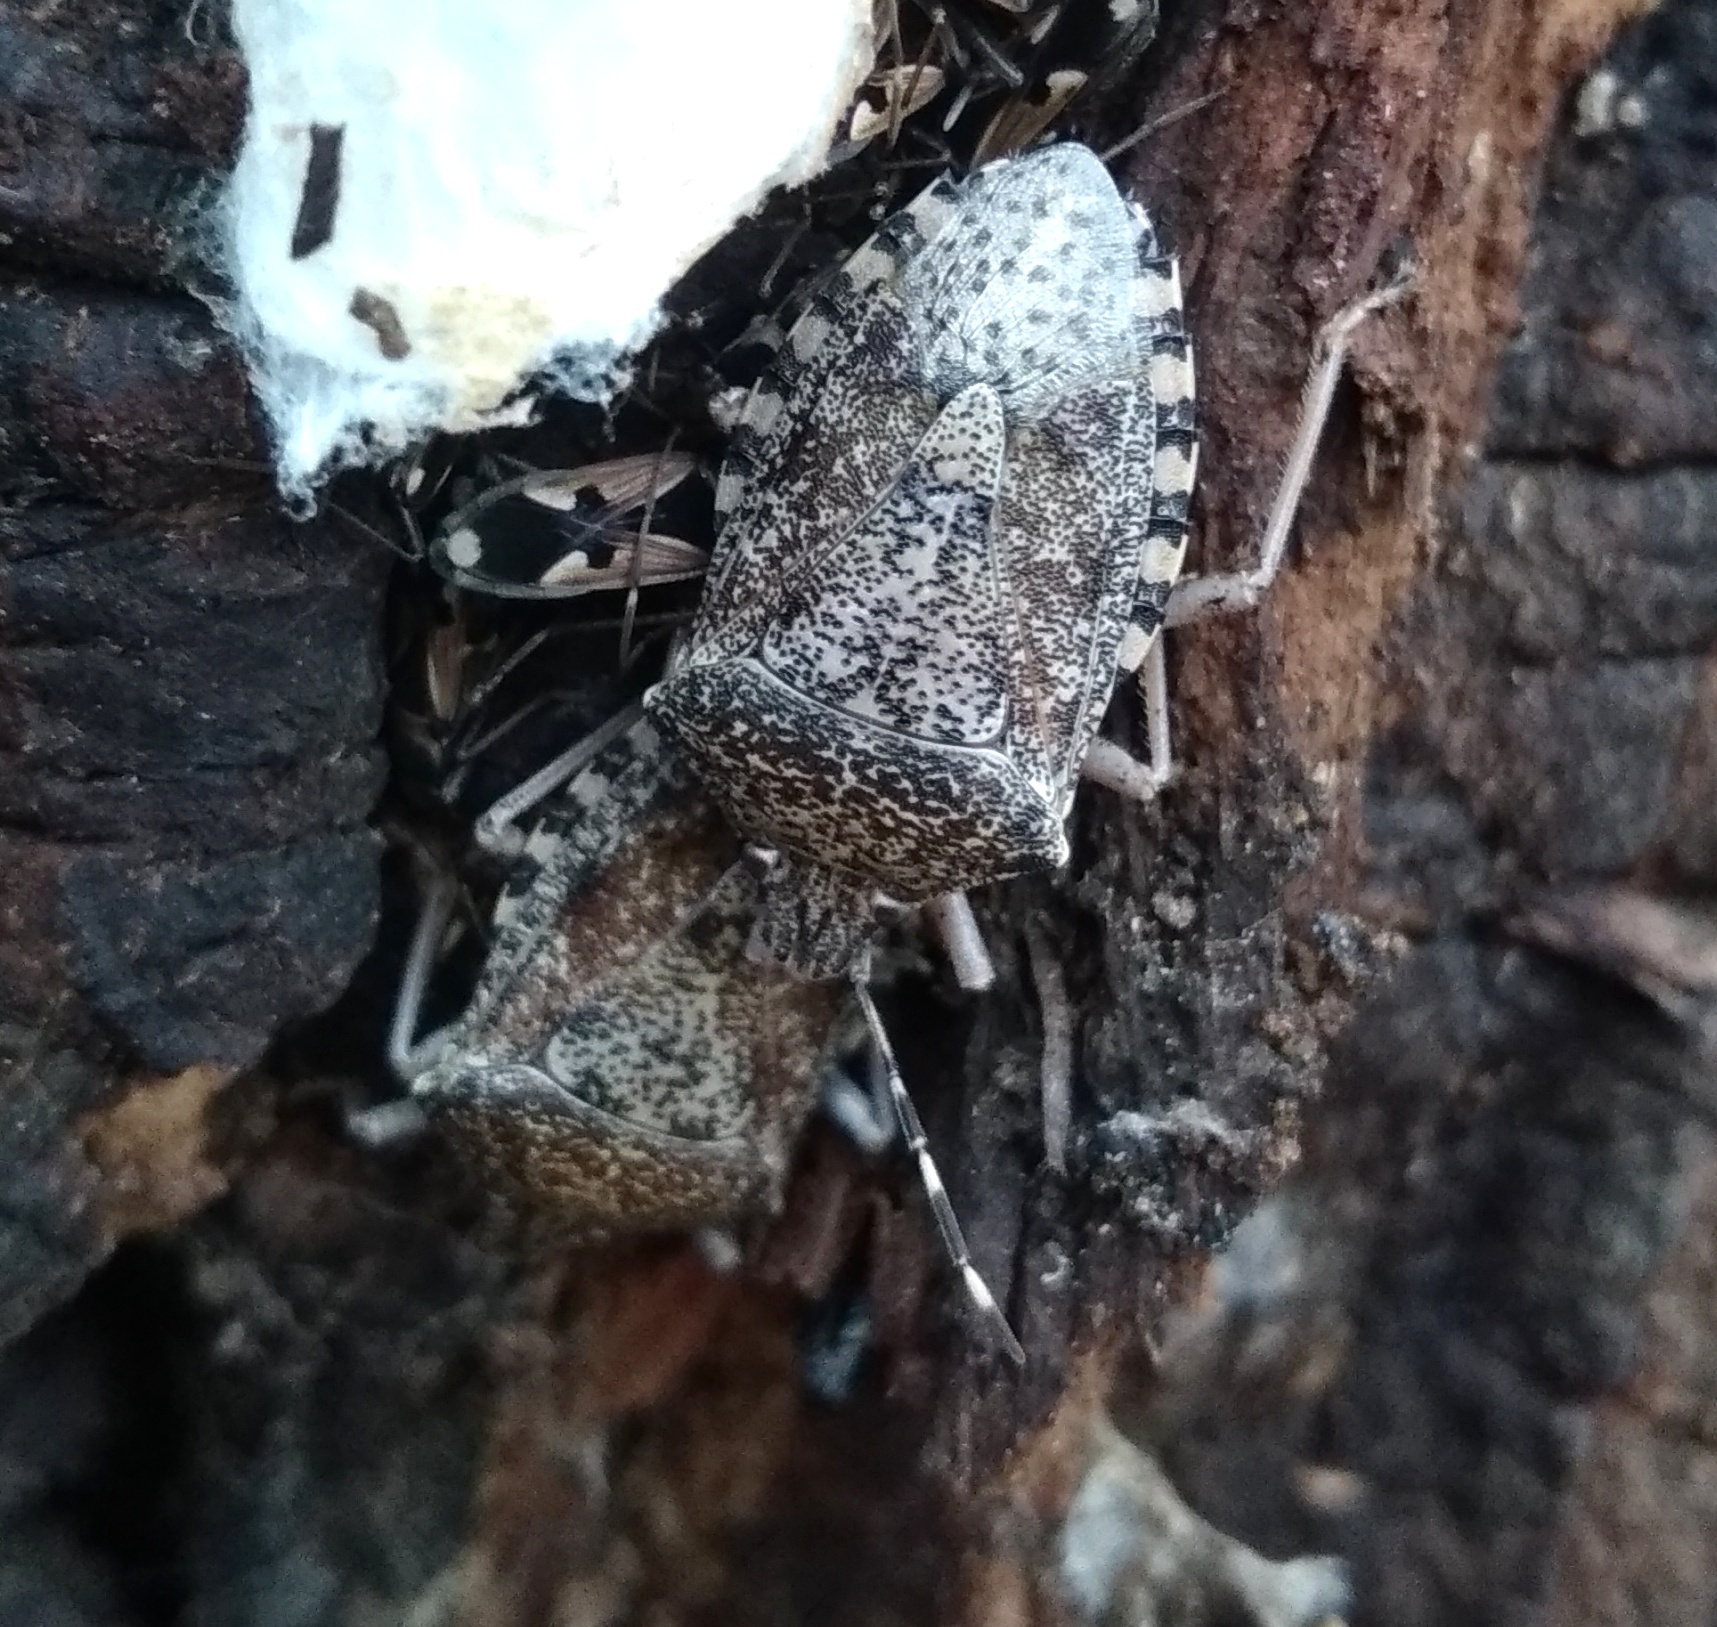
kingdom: Animalia
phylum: Arthropoda
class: Insecta
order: Hemiptera
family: Pentatomidae
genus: Rhaphigaster
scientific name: Rhaphigaster nebulosa
